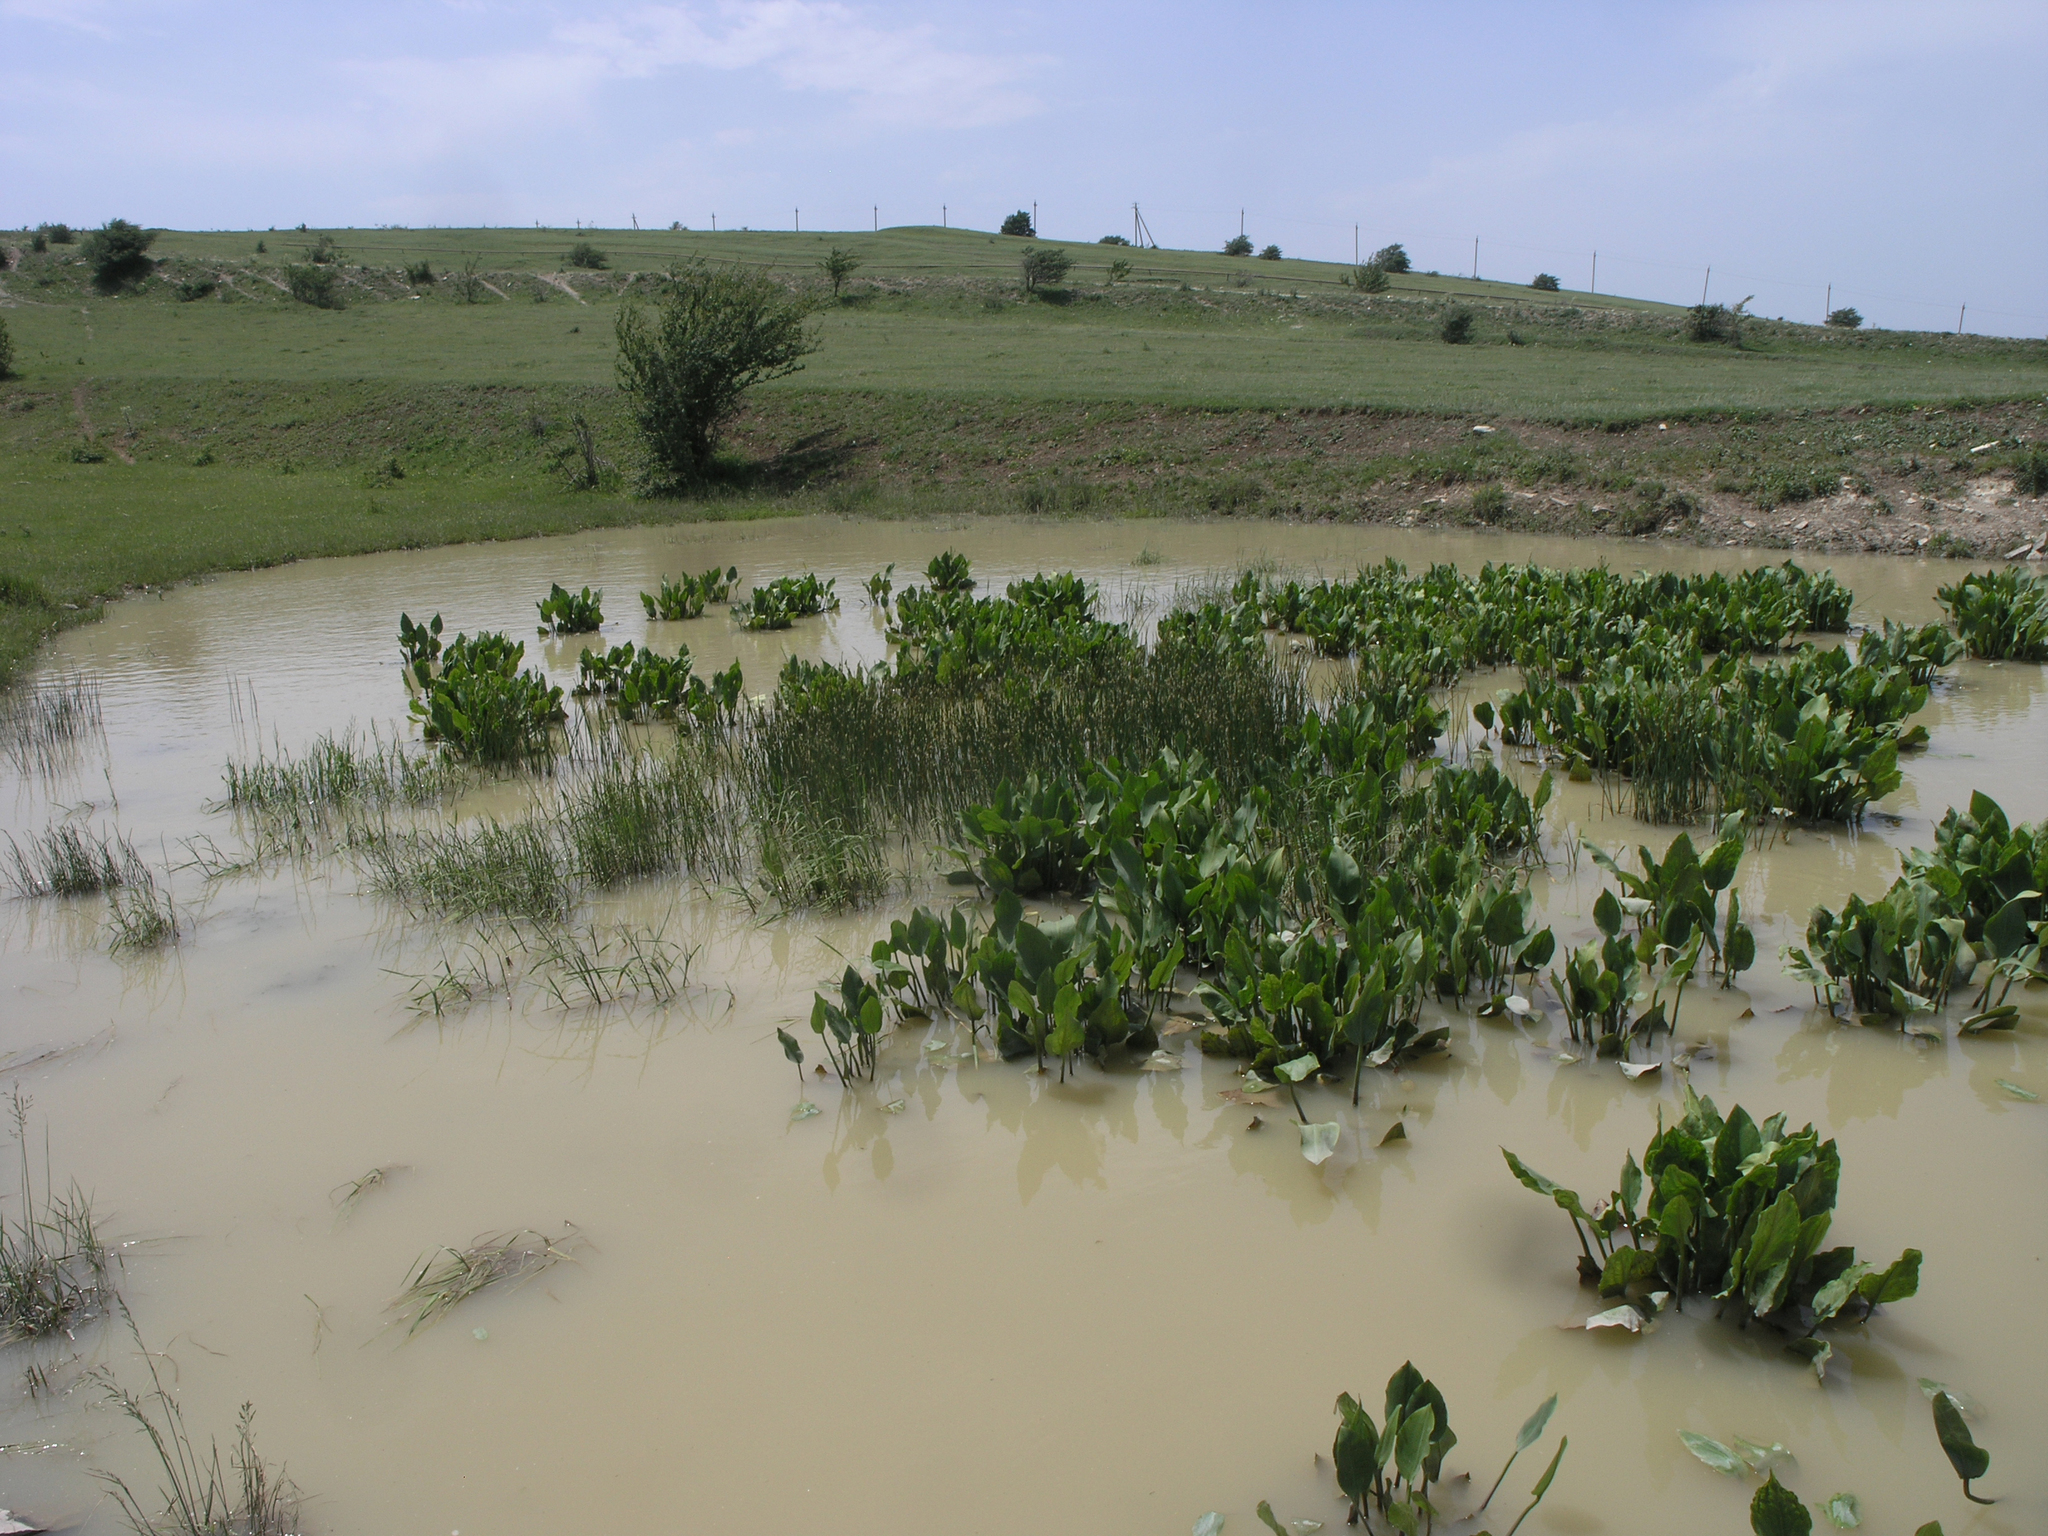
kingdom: Plantae
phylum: Tracheophyta
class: Liliopsida
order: Alismatales
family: Alismataceae
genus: Alisma
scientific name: Alisma plantago-aquatica
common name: Water-plantain
